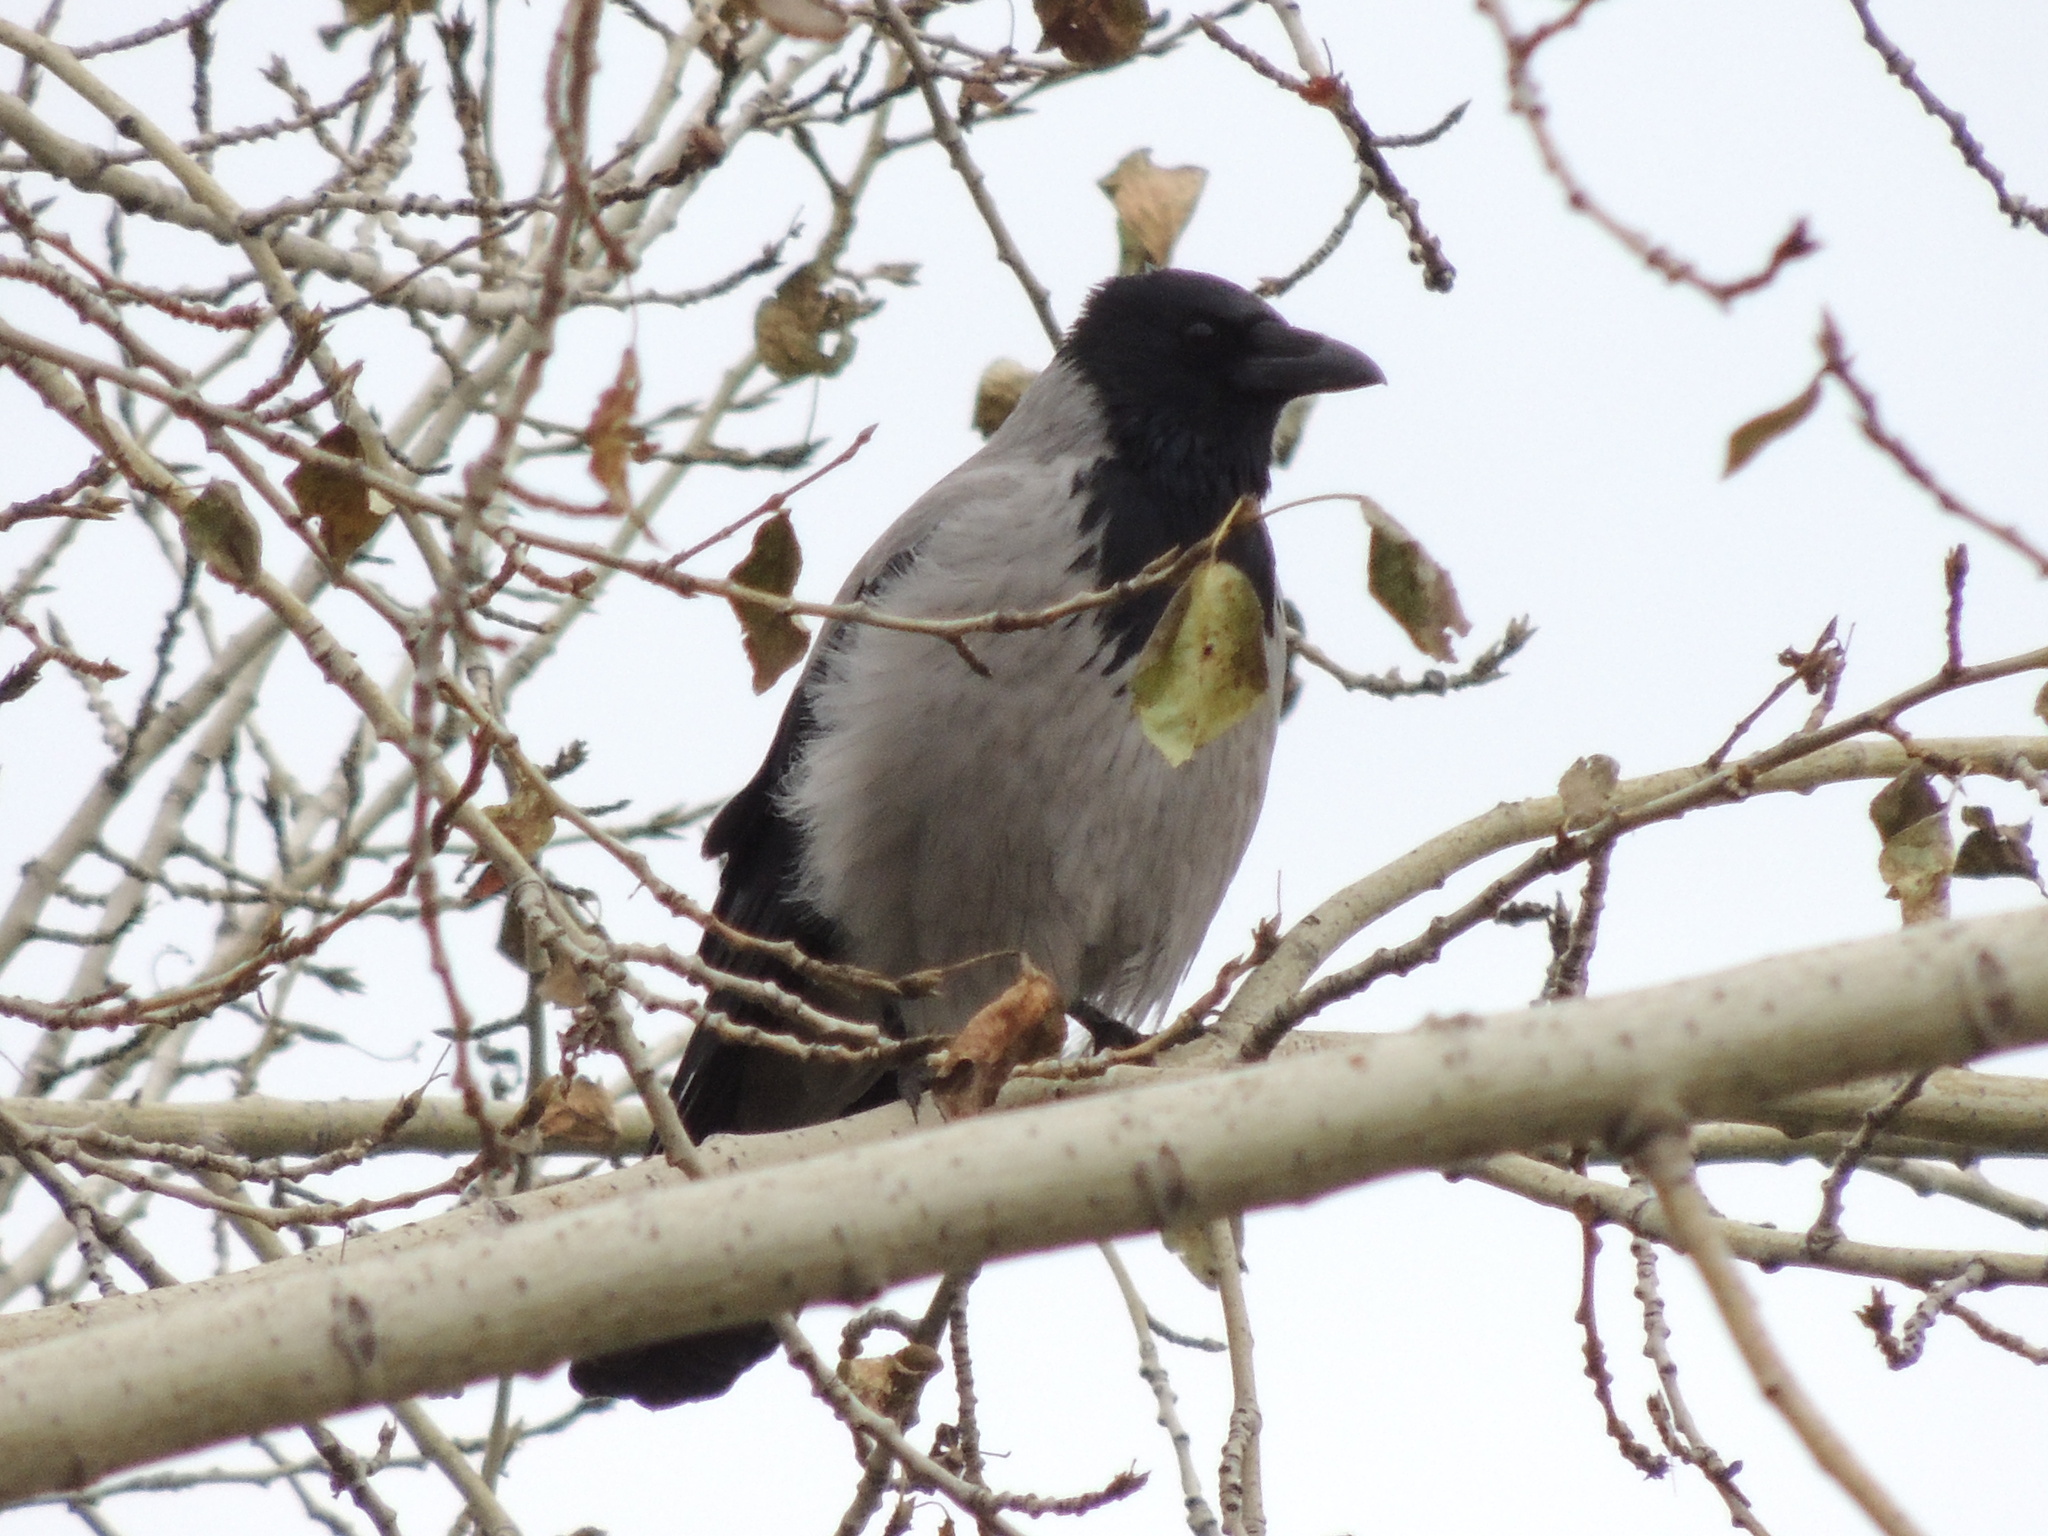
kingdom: Animalia
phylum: Chordata
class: Aves
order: Passeriformes
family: Corvidae
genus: Corvus
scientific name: Corvus cornix
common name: Hooded crow
